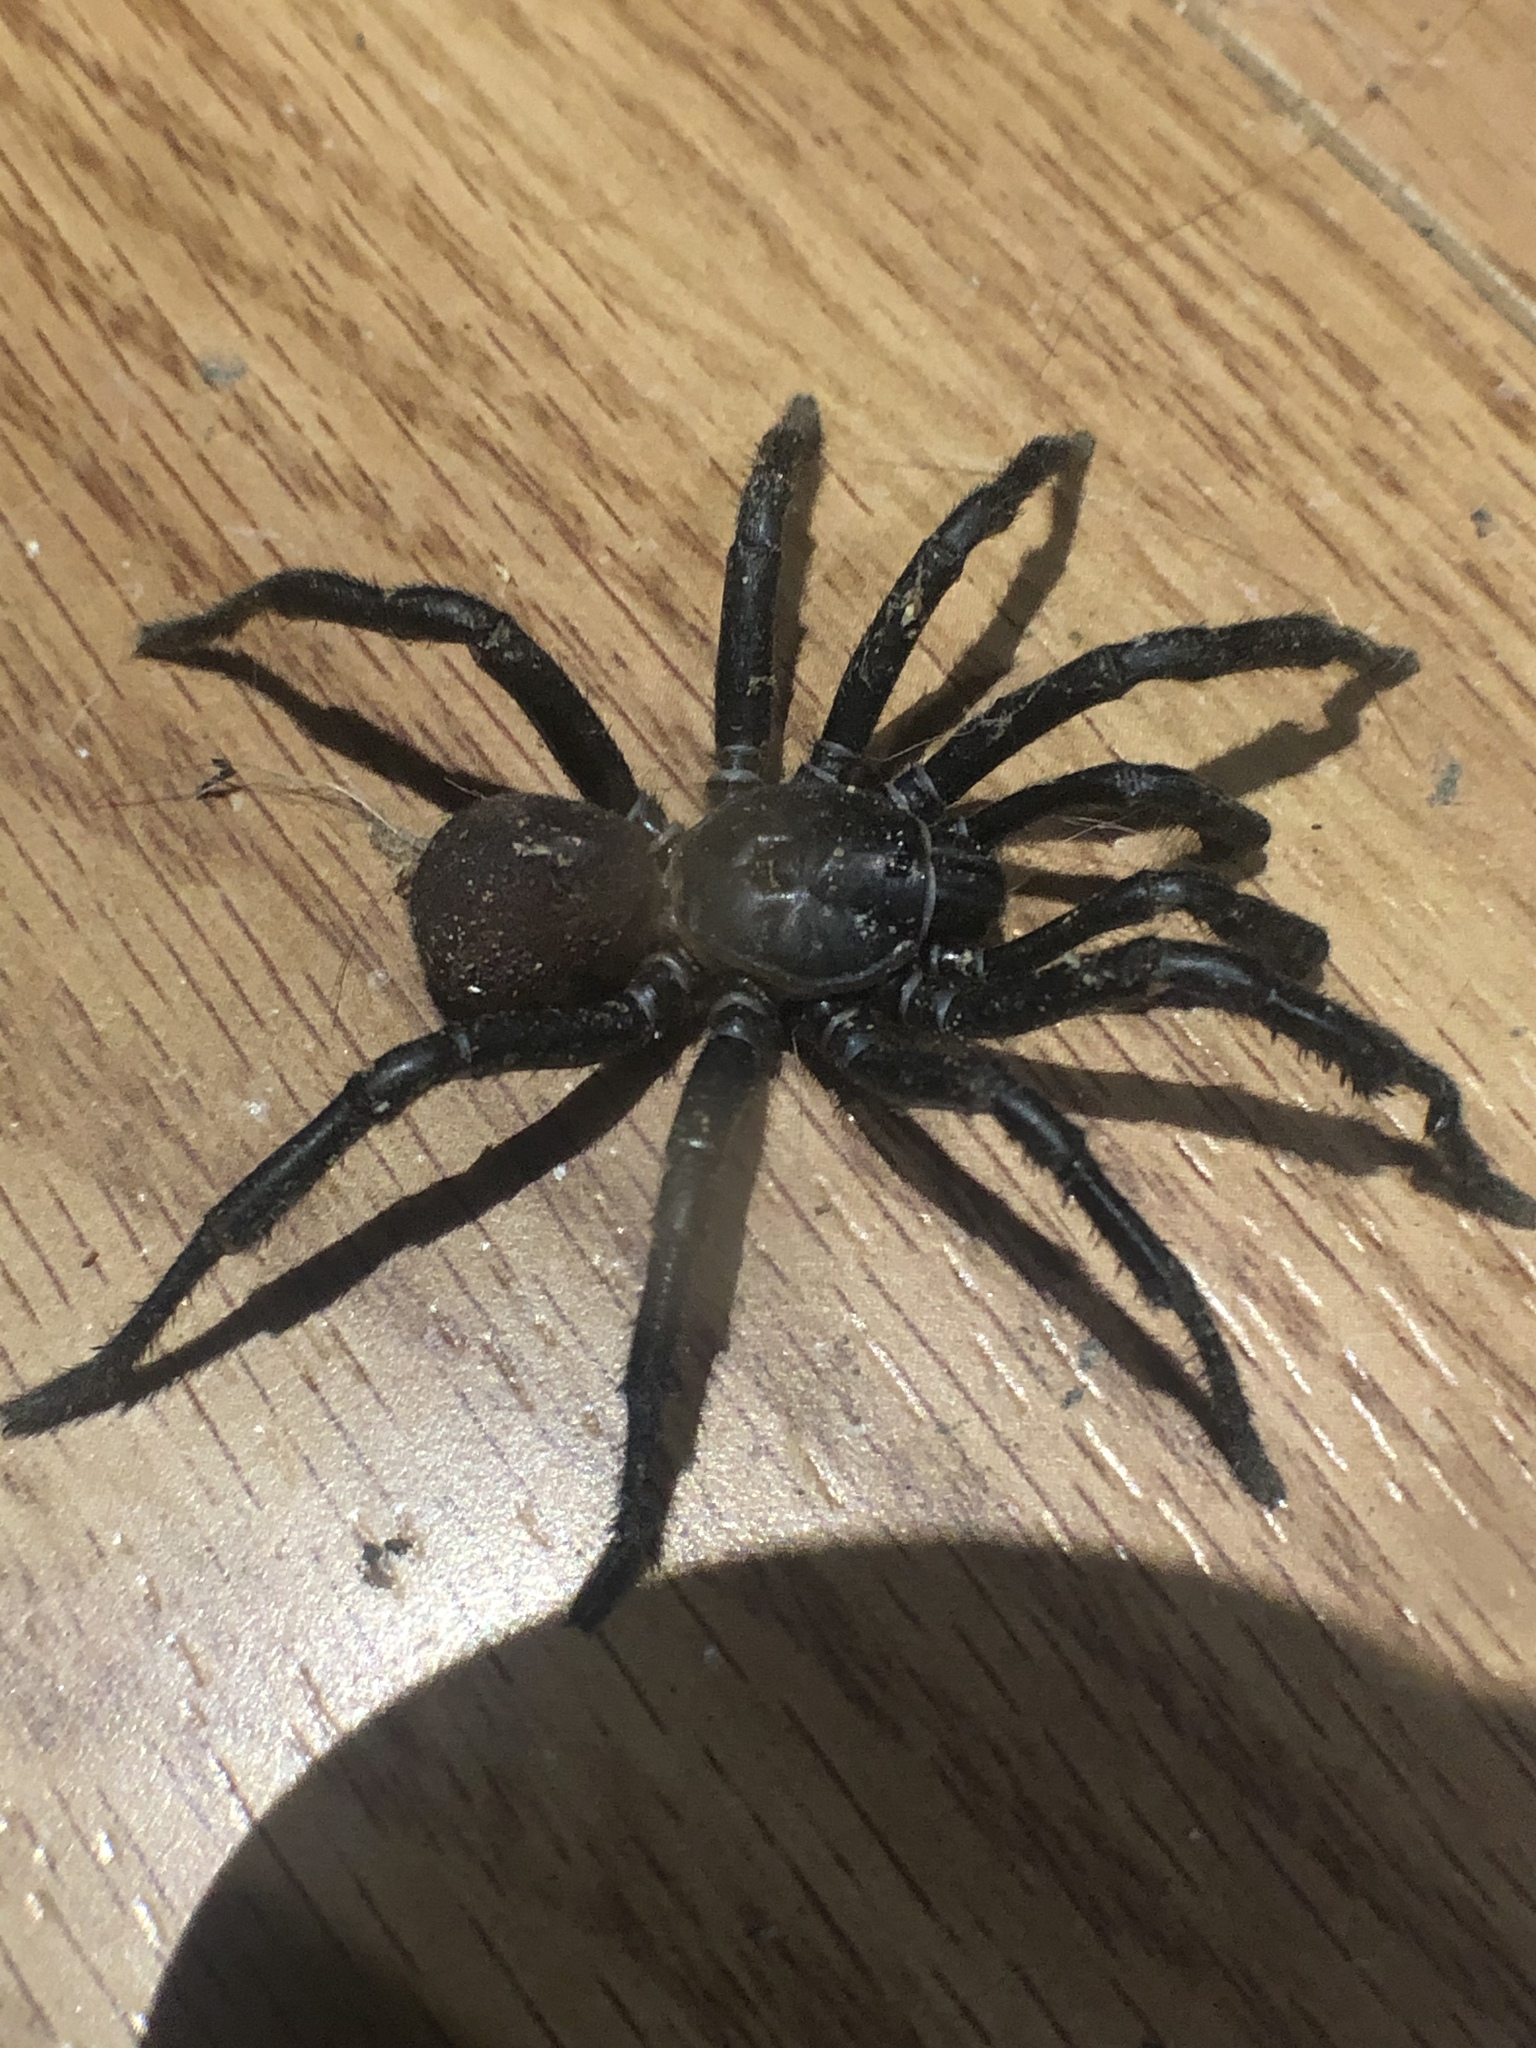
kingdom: Animalia
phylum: Arthropoda
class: Arachnida
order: Araneae
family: Halonoproctidae
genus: Bothriocyrtum
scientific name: Bothriocyrtum californicum
